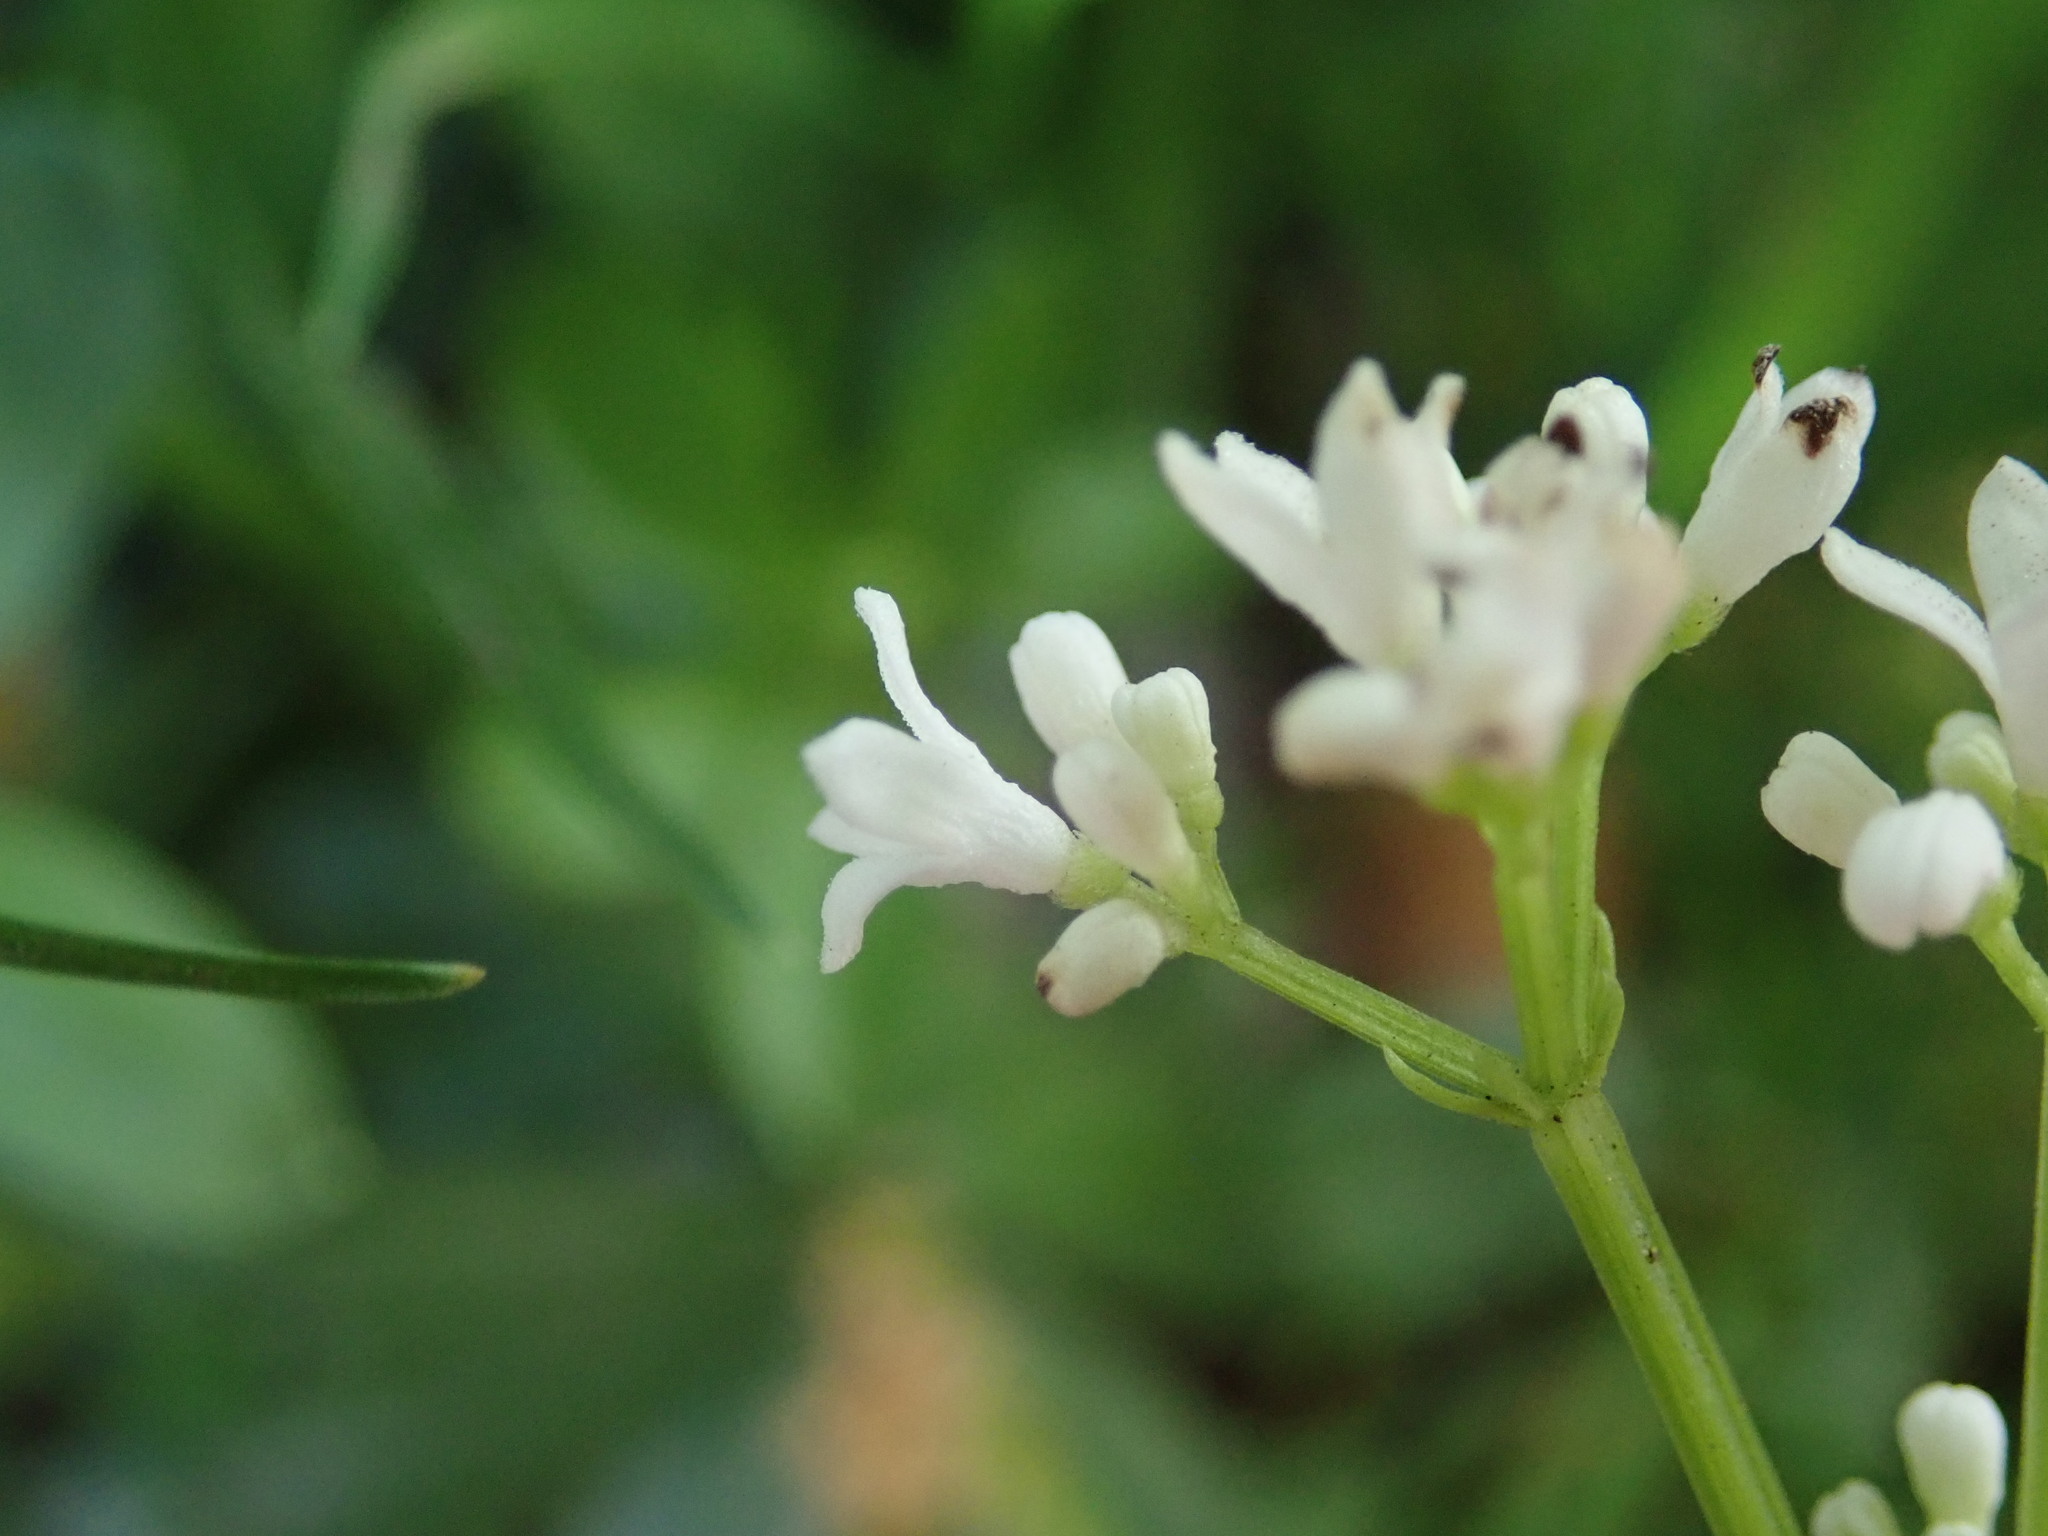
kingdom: Plantae
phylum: Tracheophyta
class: Magnoliopsida
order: Gentianales
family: Rubiaceae
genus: Galium
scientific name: Galium odoratum
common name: Sweet woodruff
